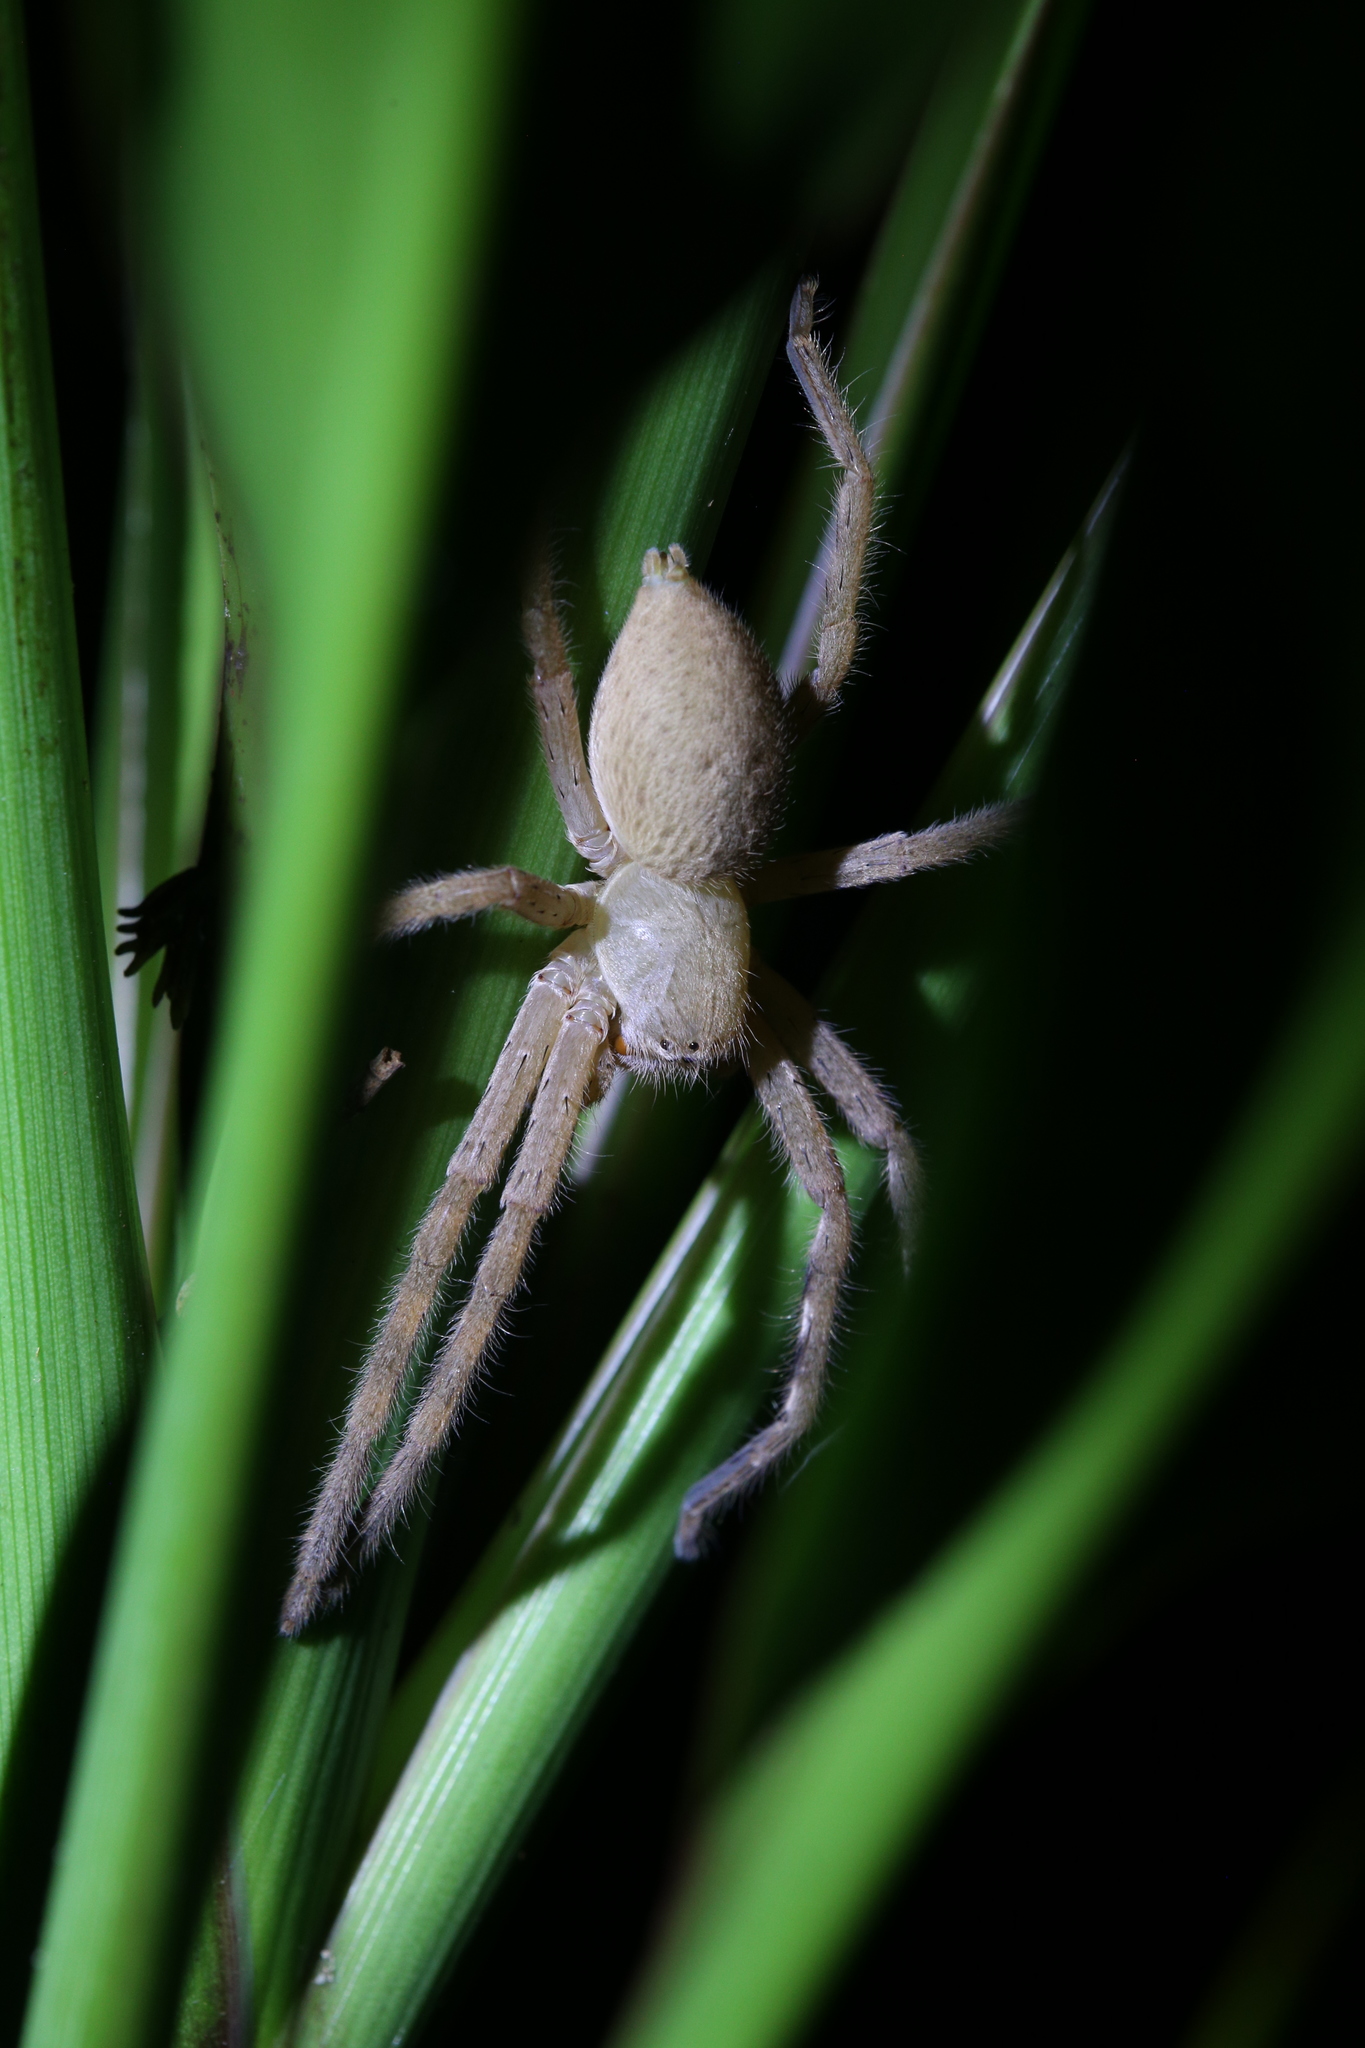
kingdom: Animalia
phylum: Arthropoda
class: Arachnida
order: Araneae
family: Sparassidae
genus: Neosparassus
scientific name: Neosparassus salacius
